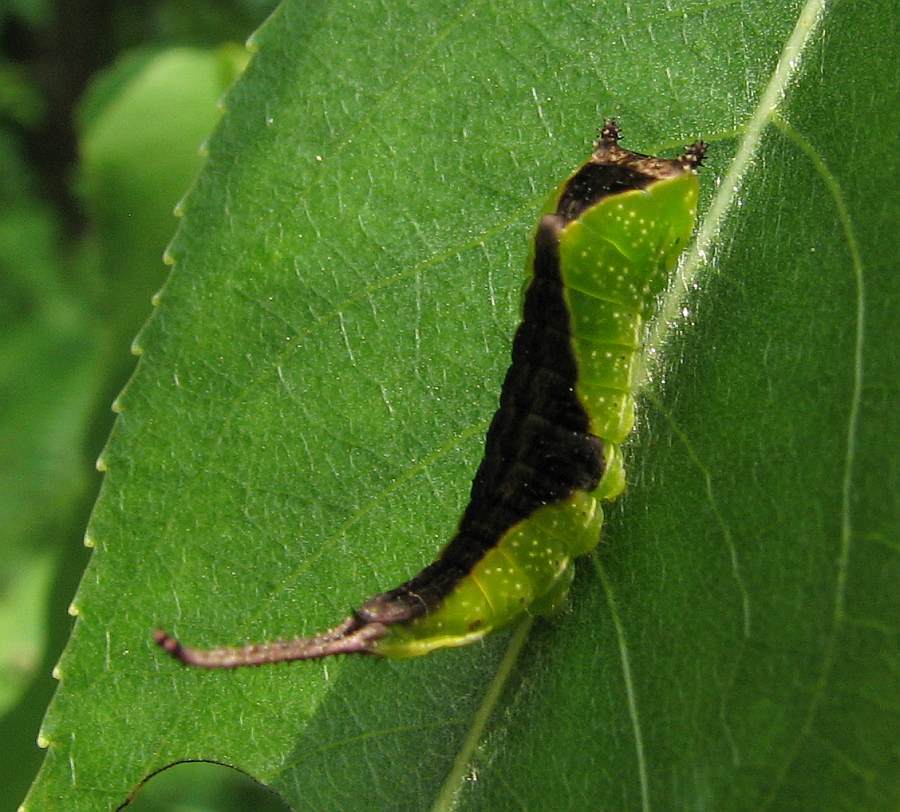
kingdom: Animalia
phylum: Arthropoda
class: Insecta
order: Lepidoptera
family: Notodontidae
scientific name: Notodontidae
